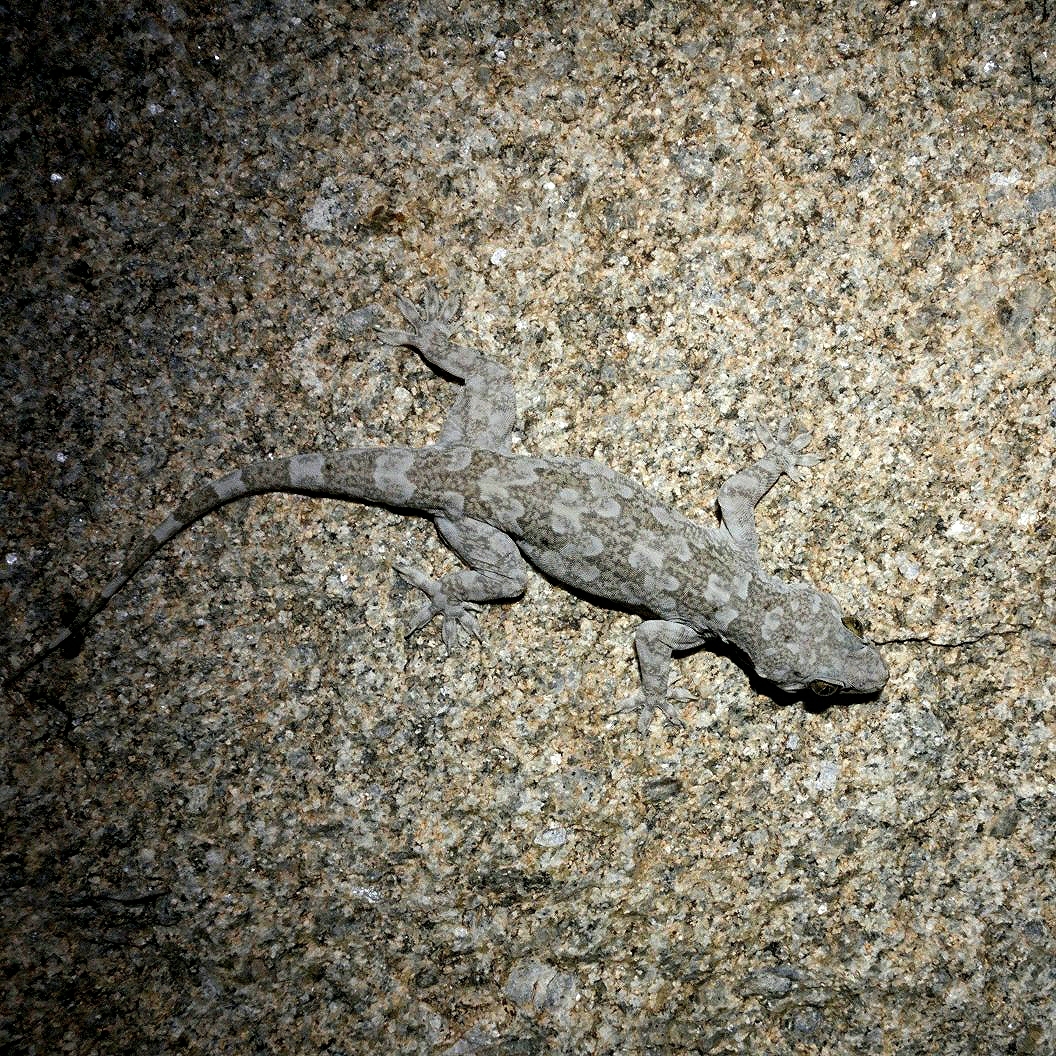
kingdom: Animalia
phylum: Chordata
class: Squamata
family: Gekkonidae
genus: Hemidactylus
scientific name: Hemidactylus raya
